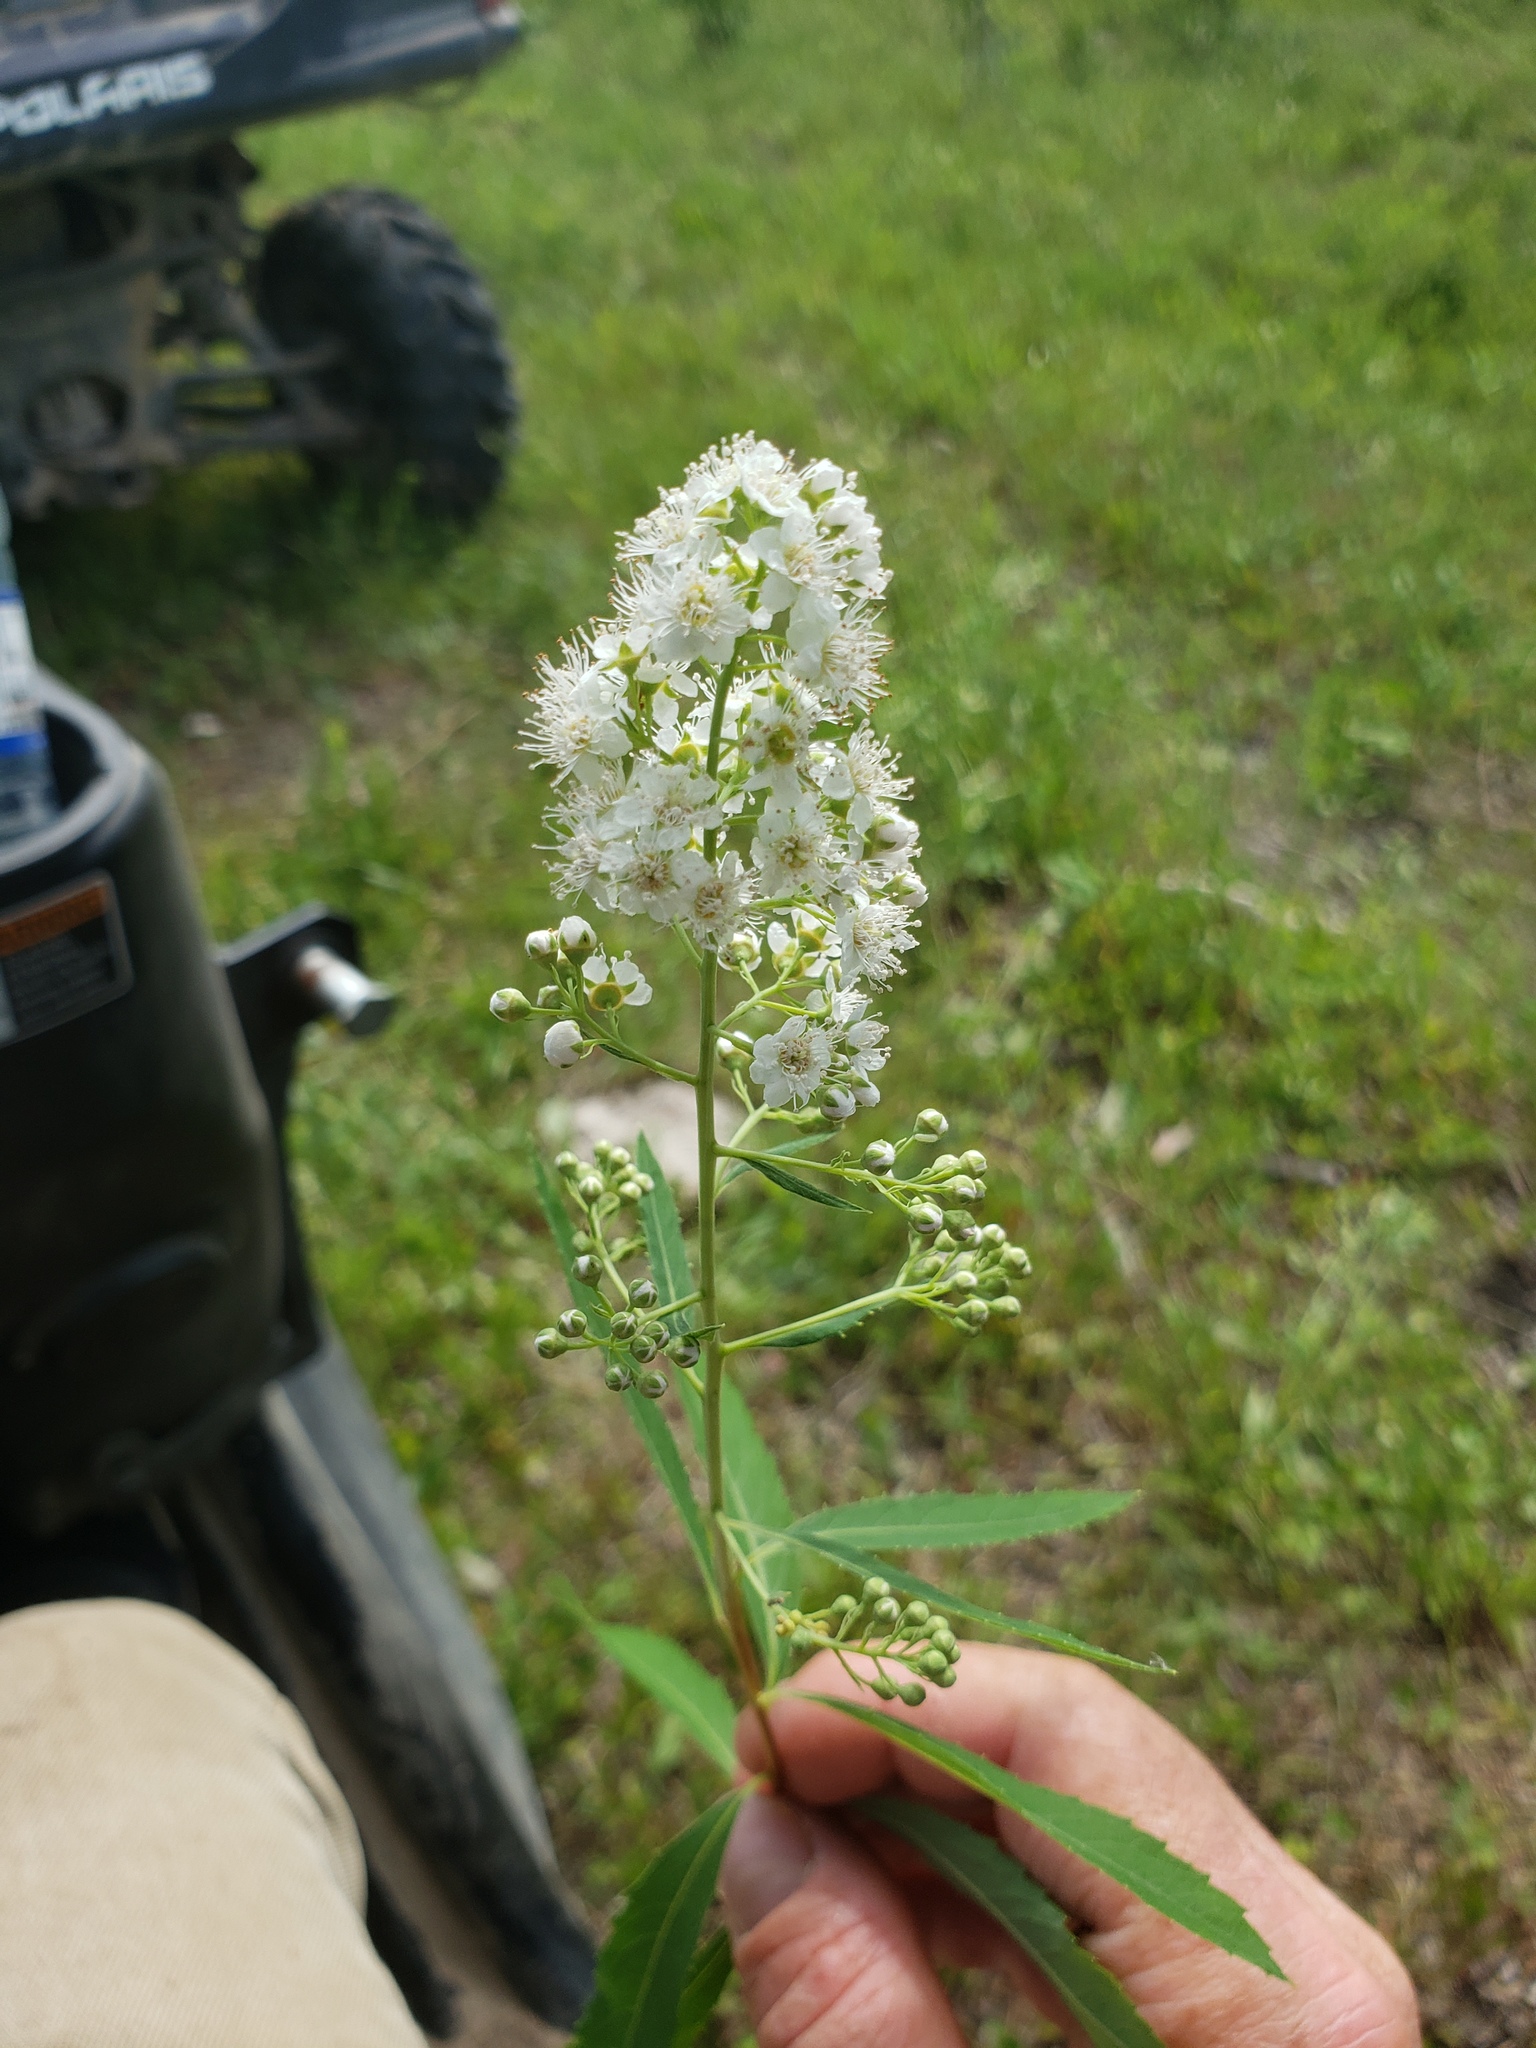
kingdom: Plantae
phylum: Tracheophyta
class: Magnoliopsida
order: Rosales
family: Rosaceae
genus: Spiraea
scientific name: Spiraea alba
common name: Pale bridewort
